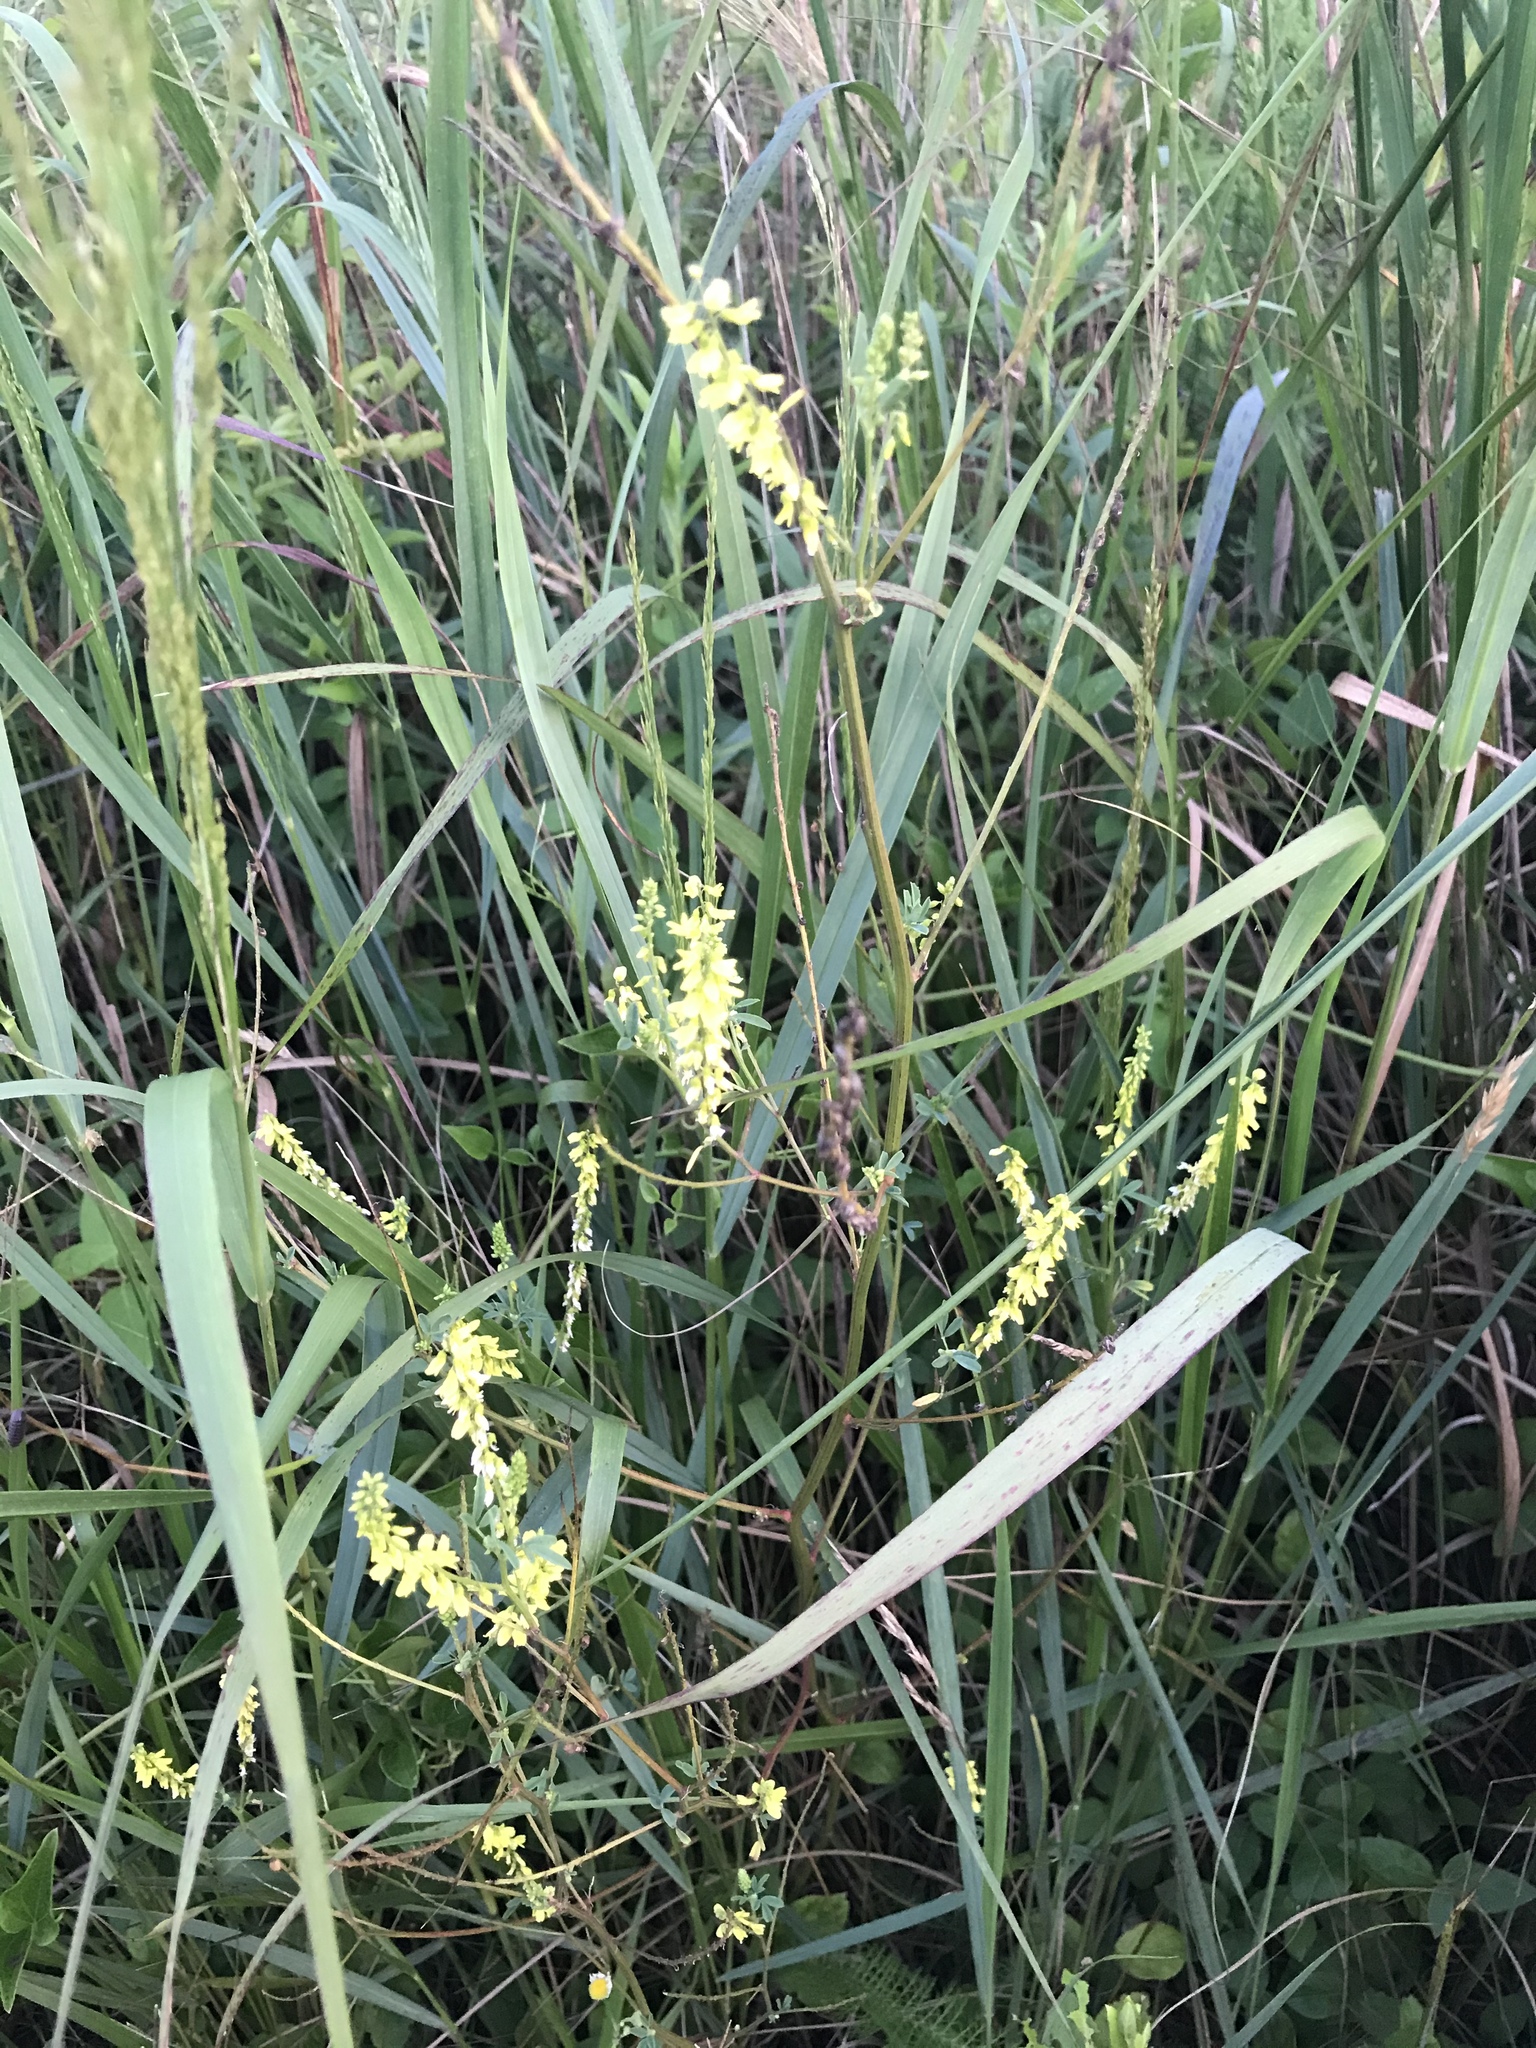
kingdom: Plantae
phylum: Tracheophyta
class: Magnoliopsida
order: Fabales
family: Fabaceae
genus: Melilotus
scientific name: Melilotus officinalis
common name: Sweetclover
